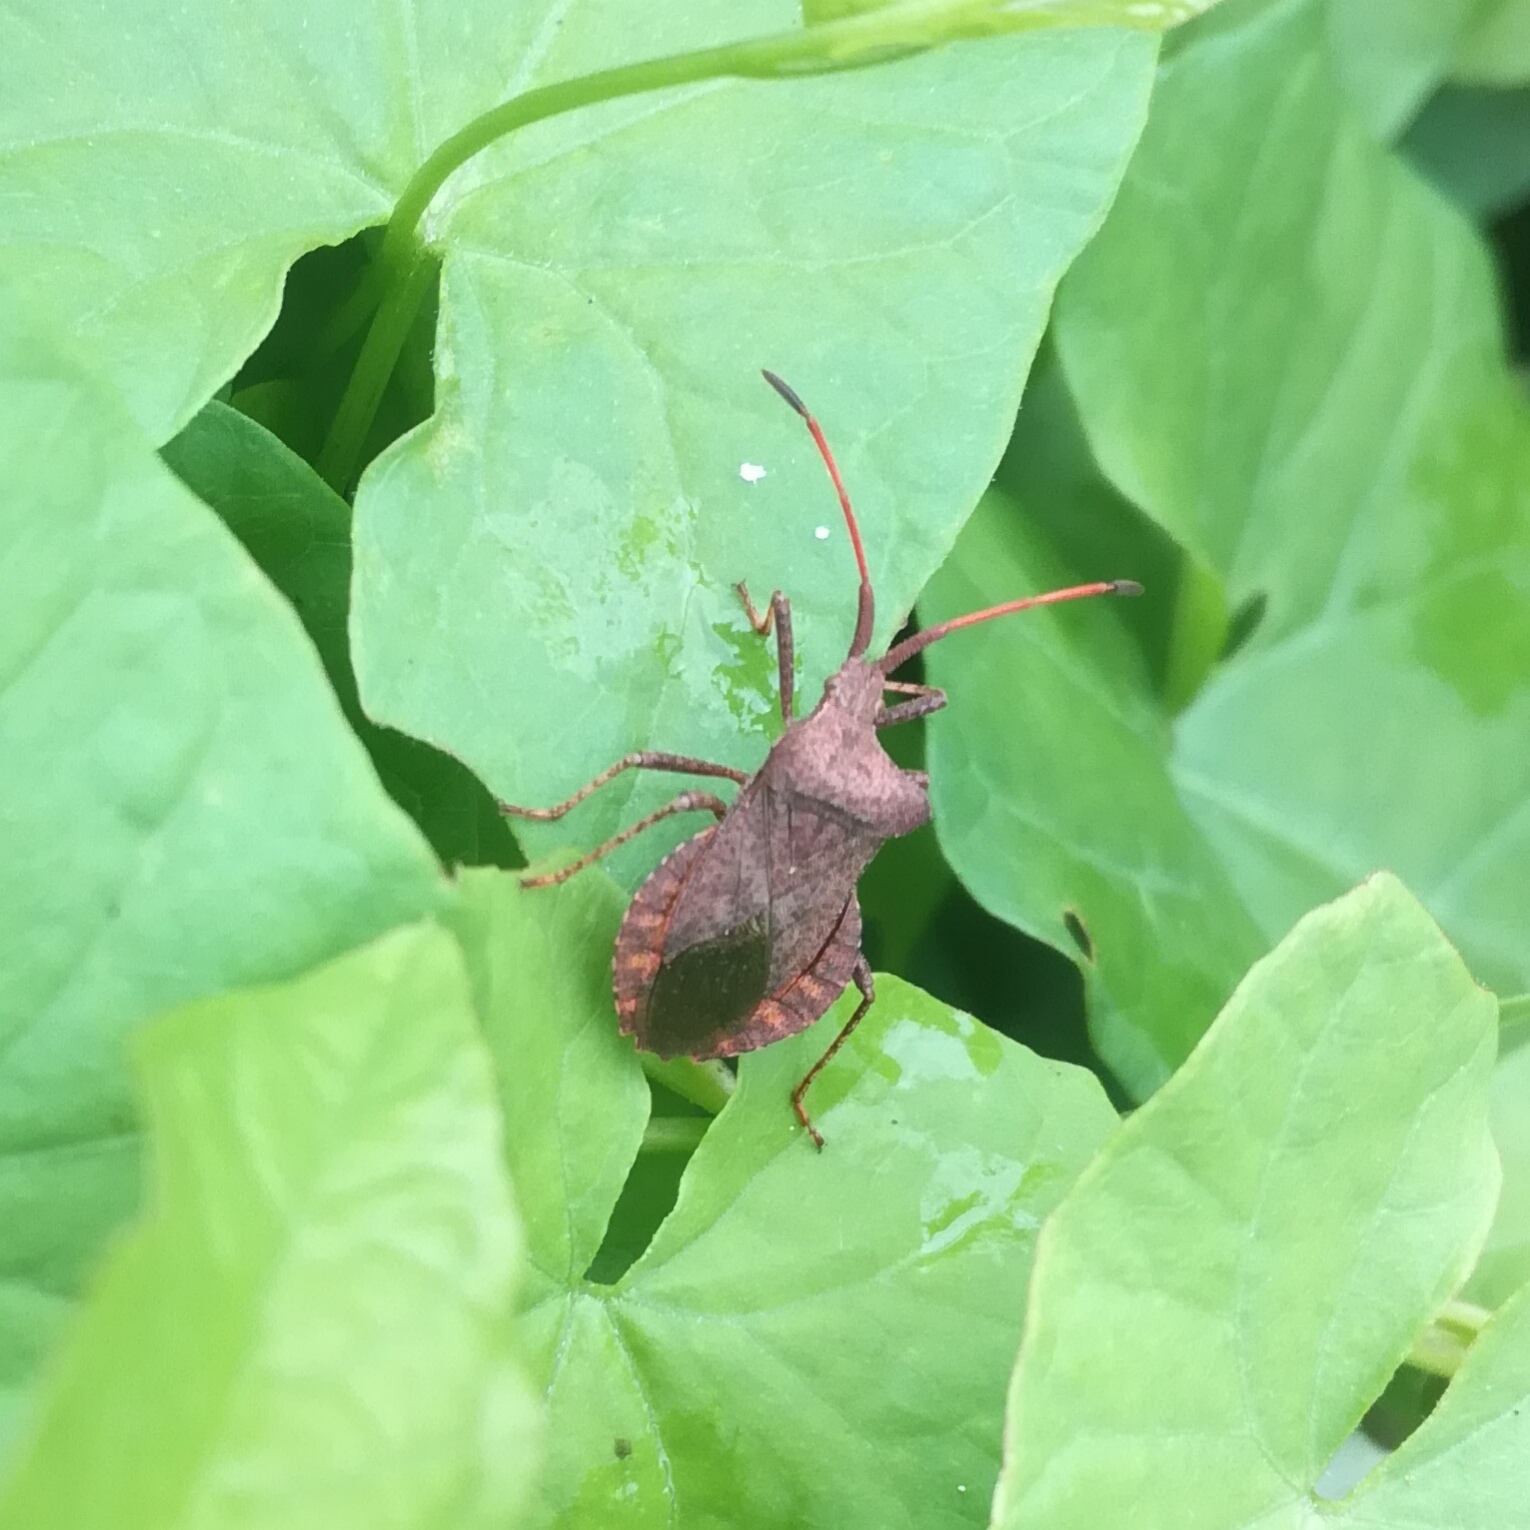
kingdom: Animalia
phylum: Arthropoda
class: Insecta
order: Hemiptera
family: Coreidae
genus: Coreus
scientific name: Coreus marginatus
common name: Dock bug
